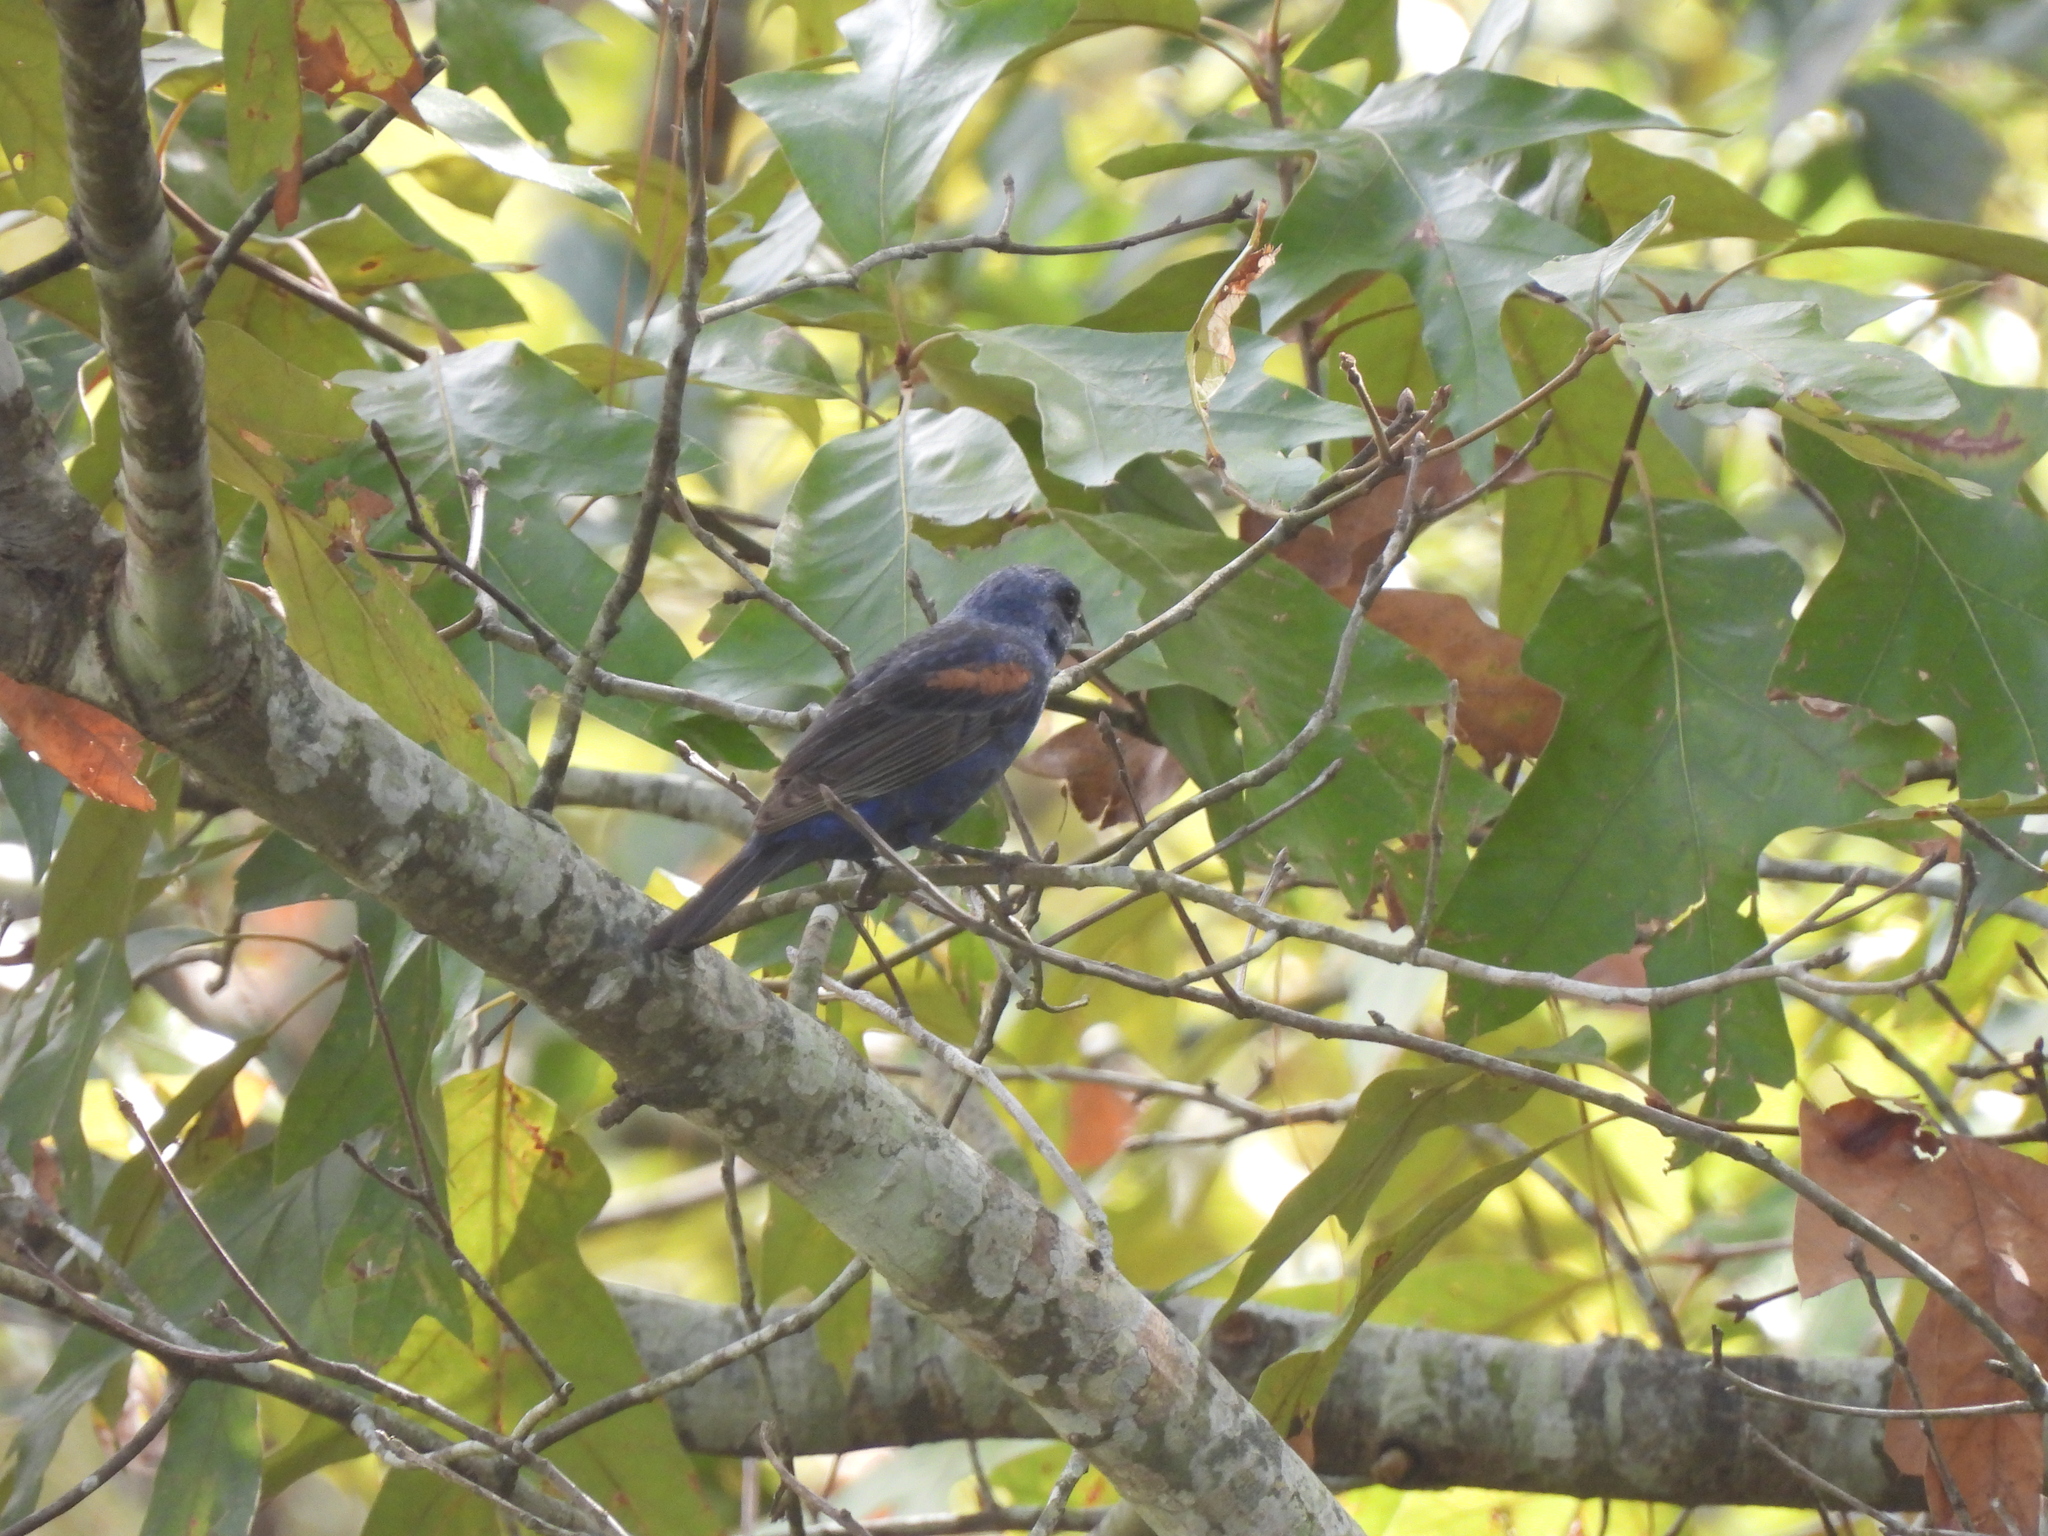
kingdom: Animalia
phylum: Chordata
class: Aves
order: Passeriformes
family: Cardinalidae
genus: Passerina
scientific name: Passerina caerulea
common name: Blue grosbeak
